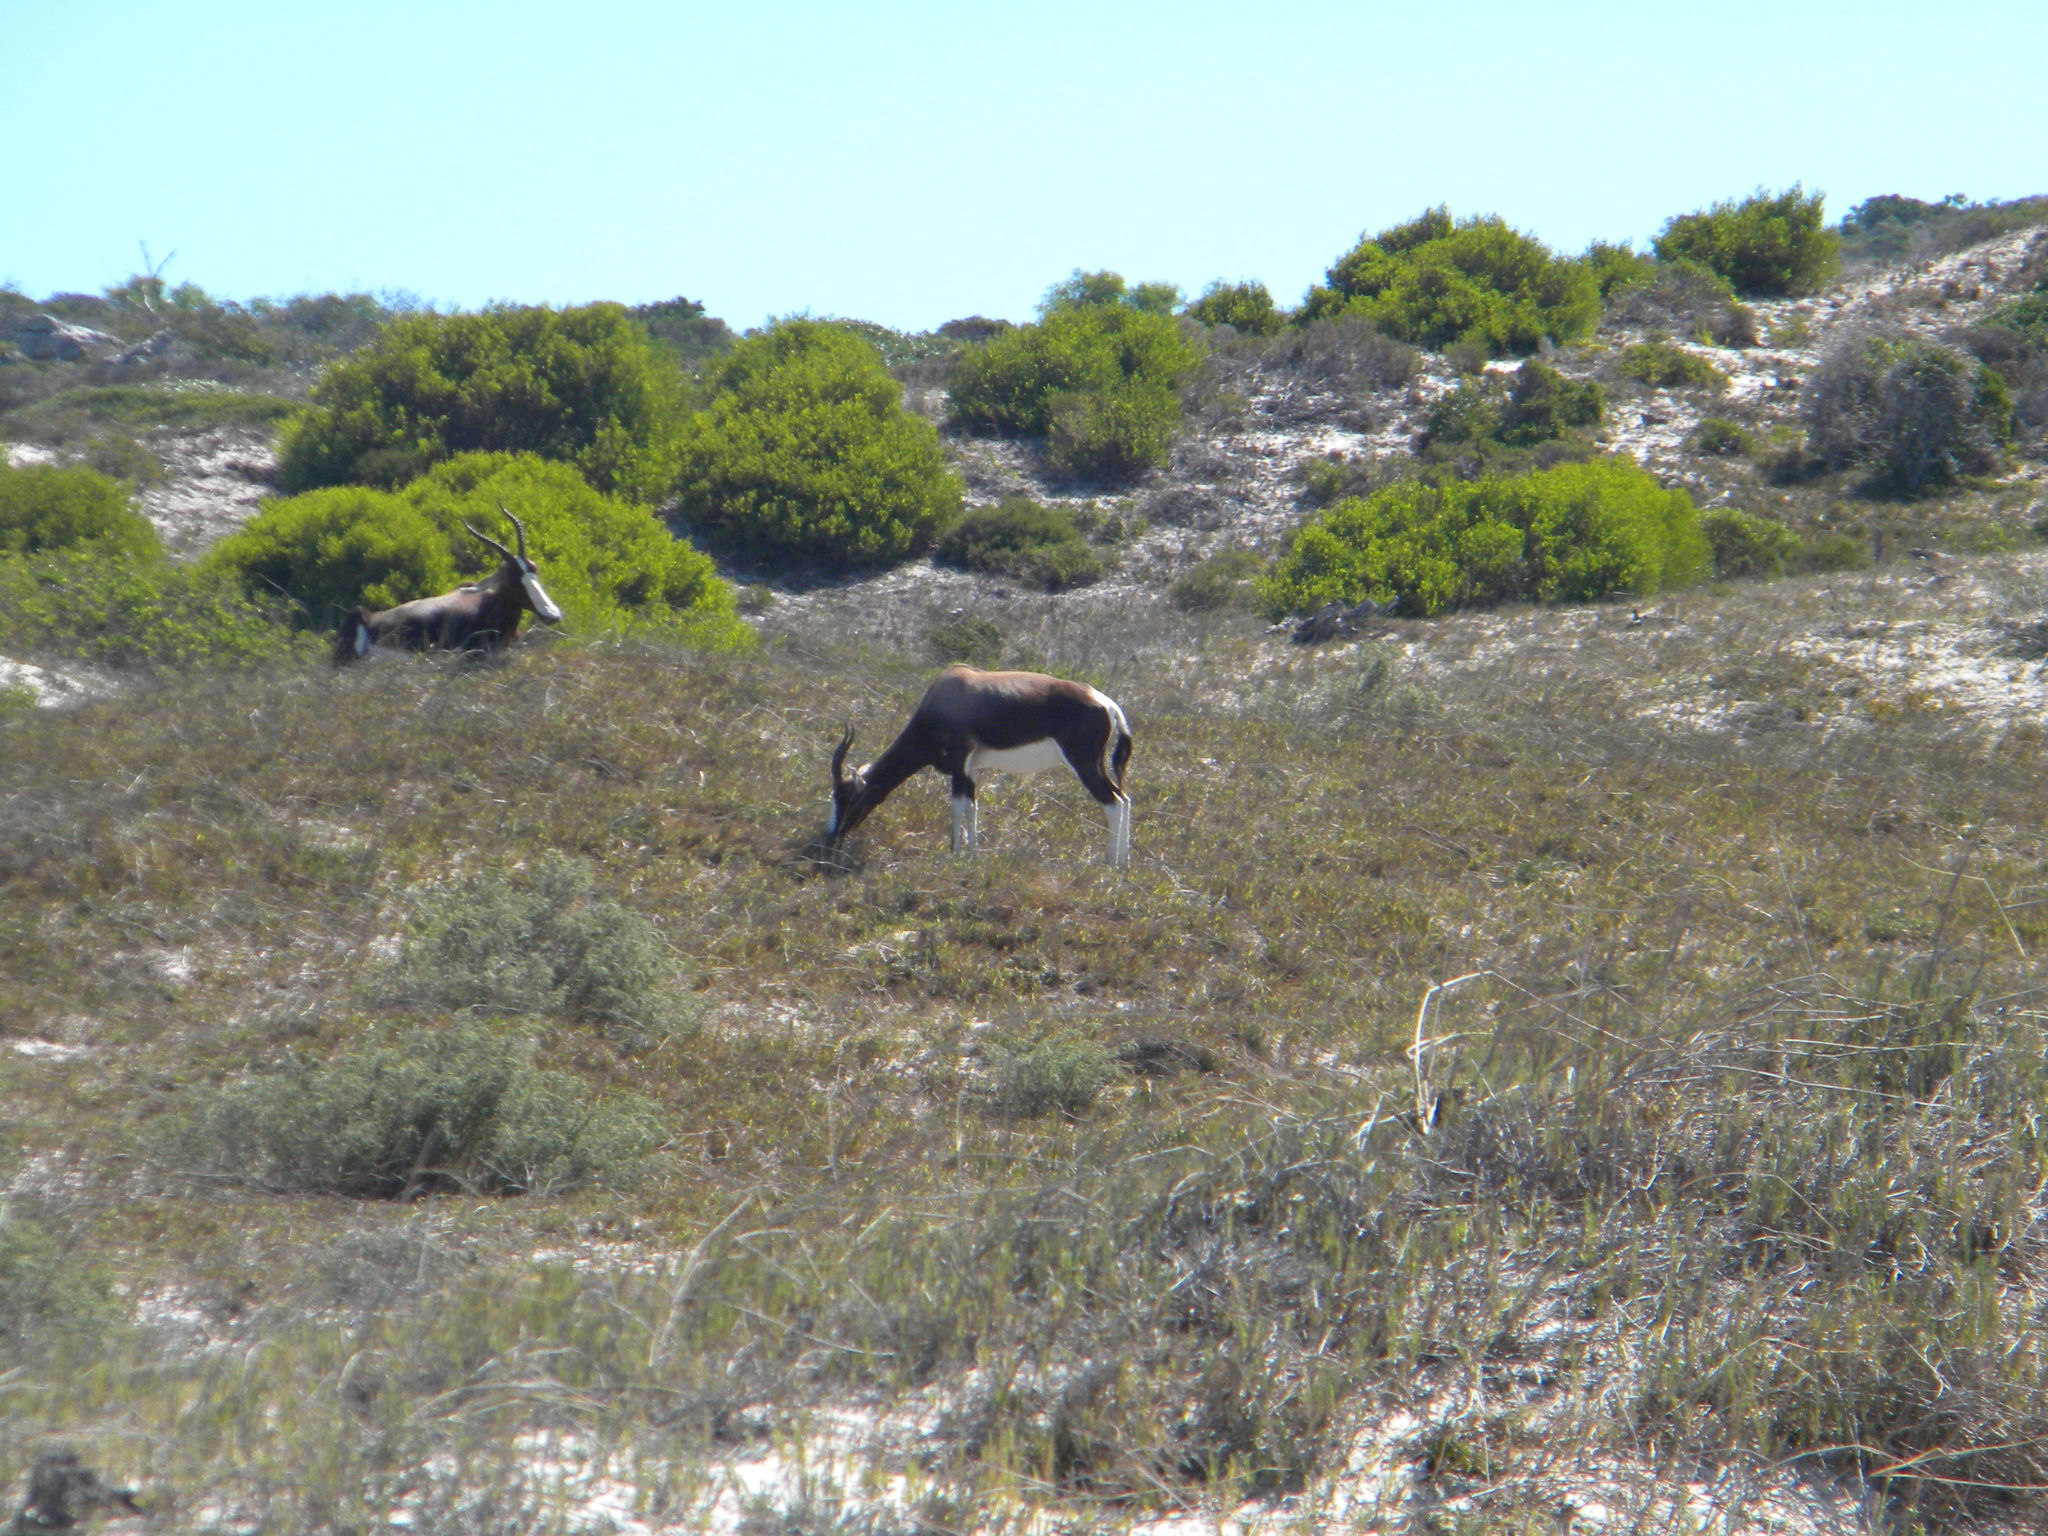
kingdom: Animalia
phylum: Chordata
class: Mammalia
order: Artiodactyla
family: Bovidae
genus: Damaliscus
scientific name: Damaliscus pygargus
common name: Bontebok
